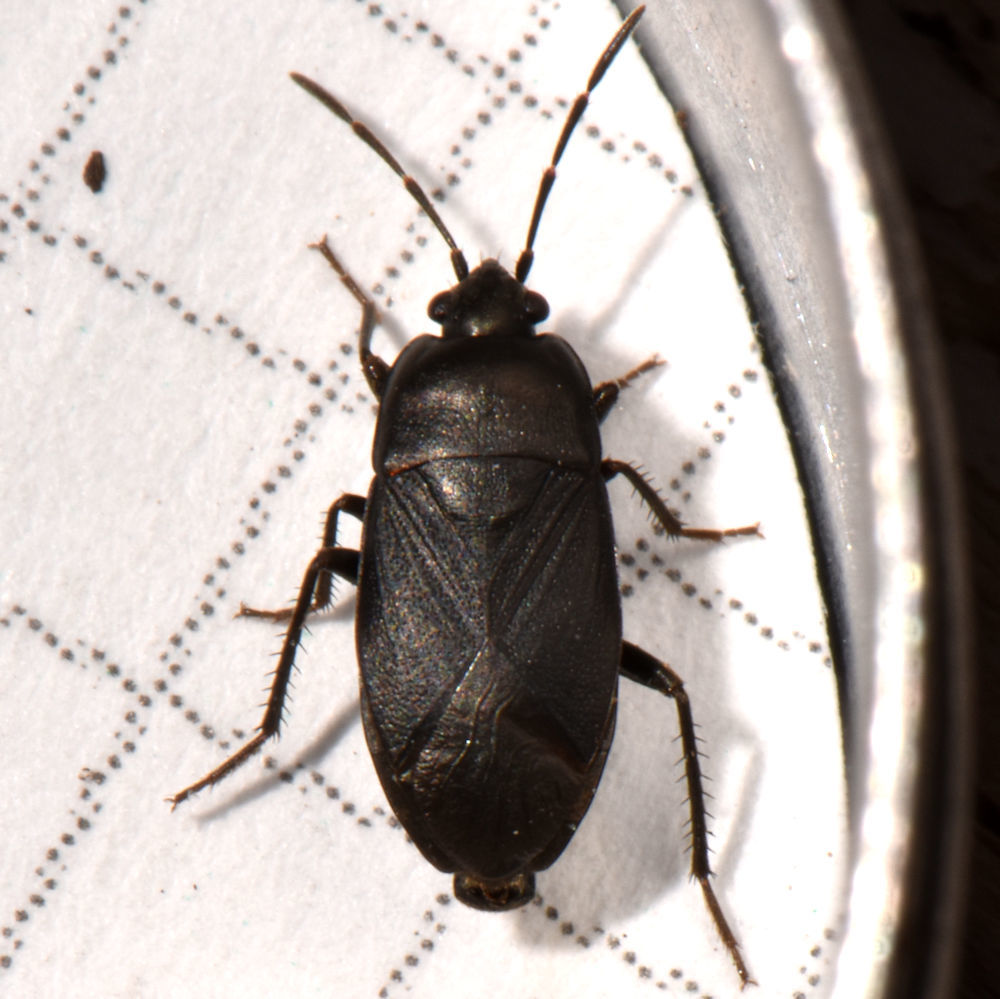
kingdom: Animalia
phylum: Arthropoda
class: Insecta
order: Hemiptera
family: Rhyparochromidae
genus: Atrazonotus
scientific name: Atrazonotus umbrosus
